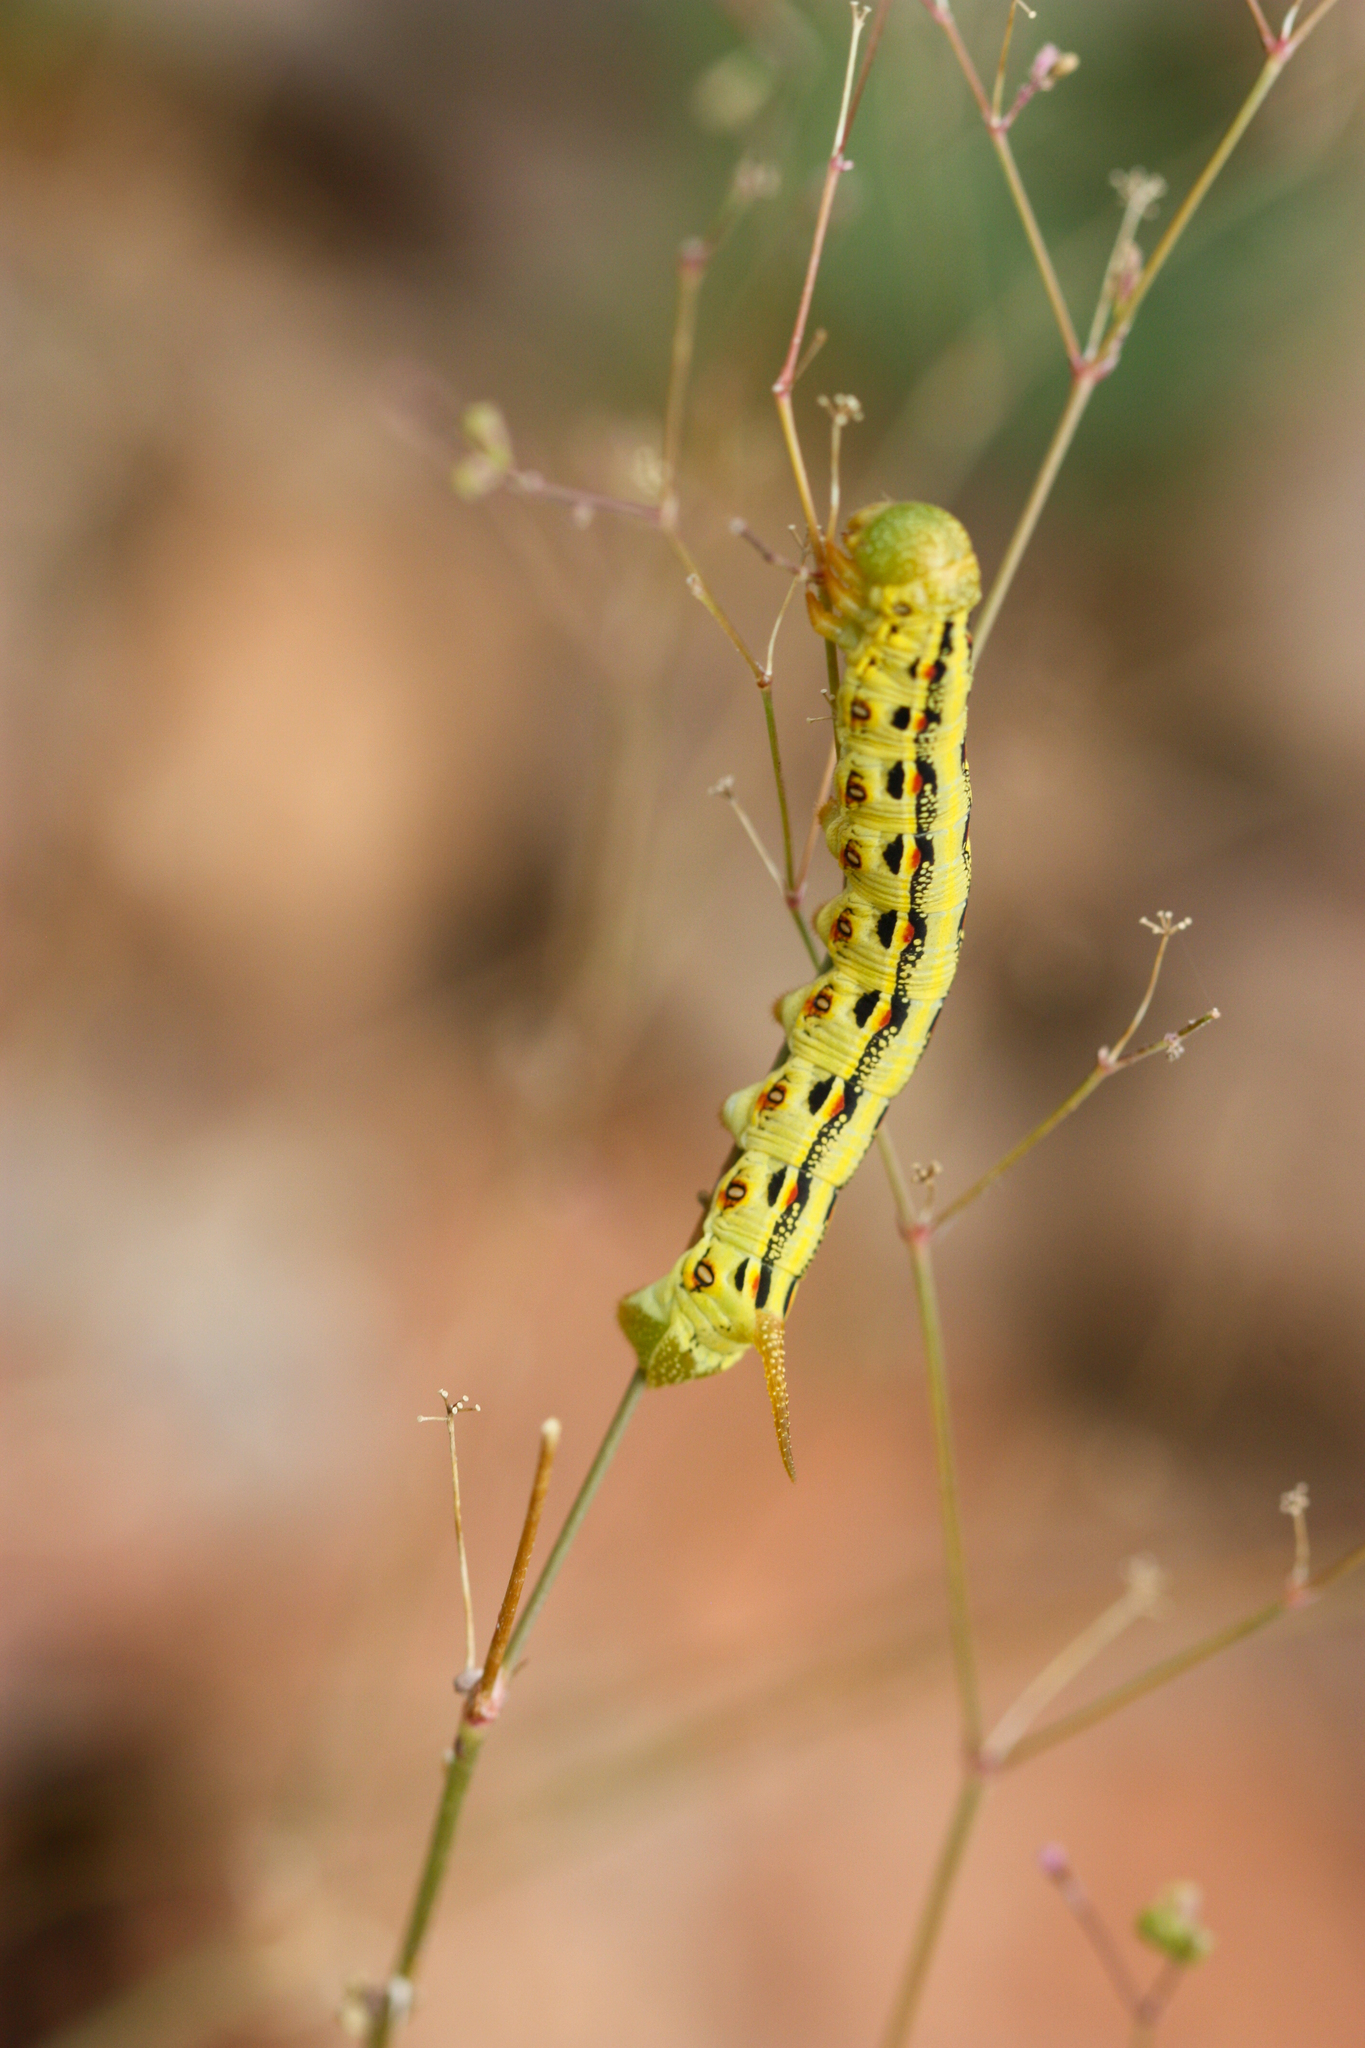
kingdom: Animalia
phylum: Arthropoda
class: Insecta
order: Lepidoptera
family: Sphingidae
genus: Hyles
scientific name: Hyles lineata
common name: White-lined sphinx
